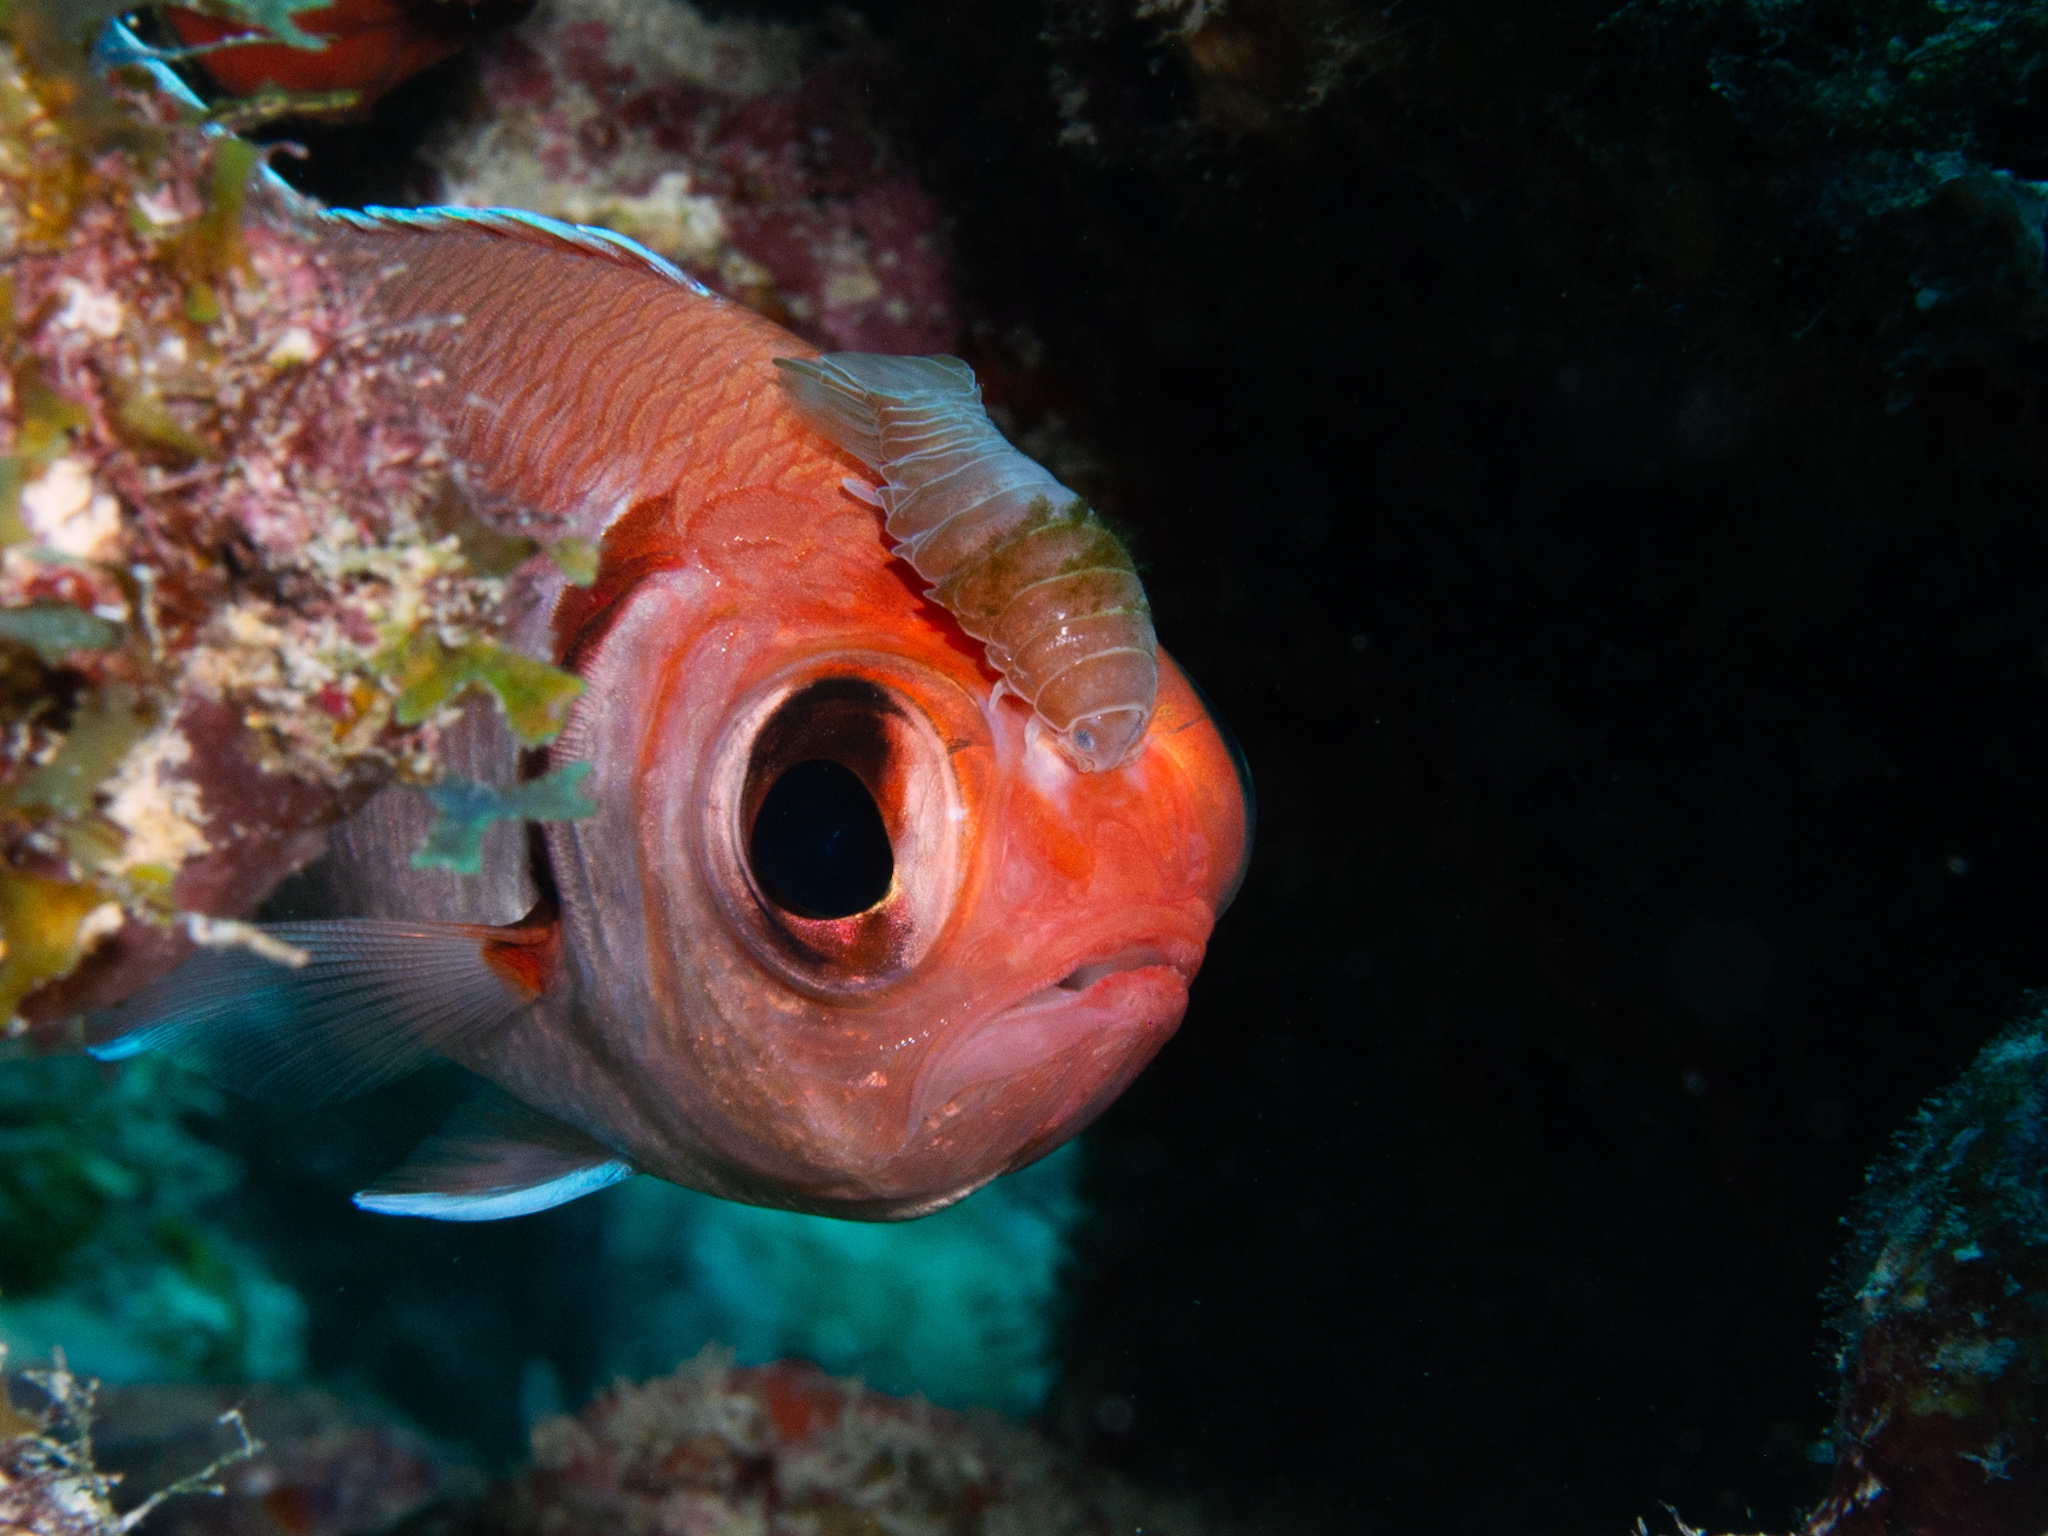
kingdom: Animalia
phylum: Chordata
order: Beryciformes
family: Holocentridae
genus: Myripristis
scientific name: Myripristis jacobus
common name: Blackbar soldierfish
